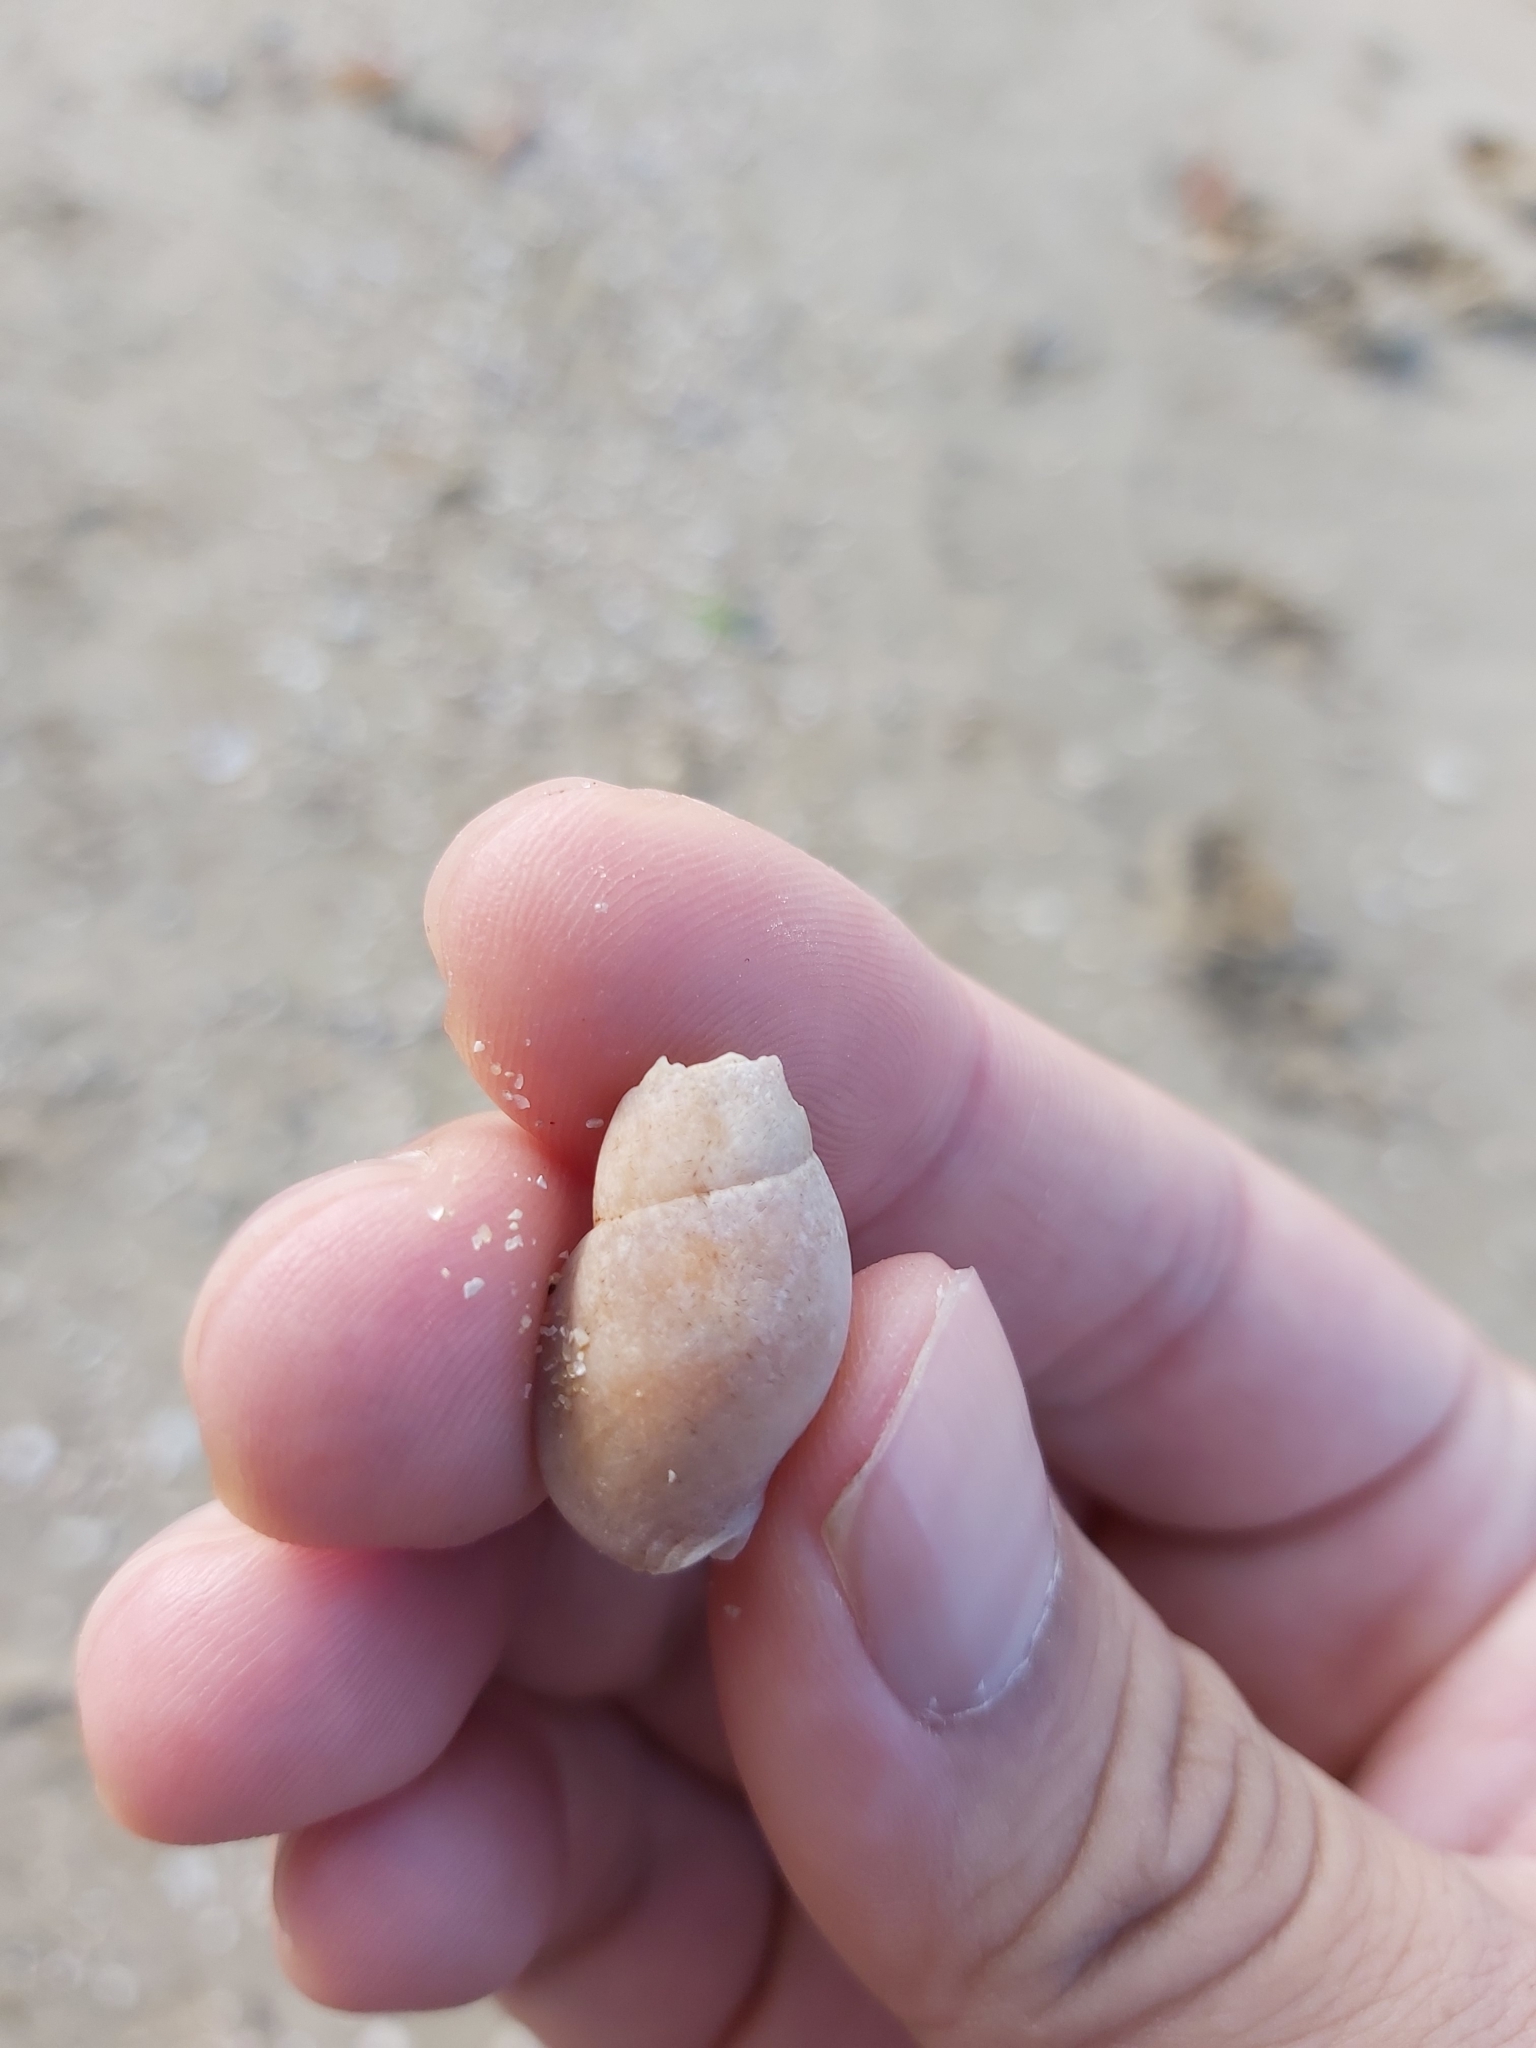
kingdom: Animalia
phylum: Mollusca
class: Gastropoda
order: Neogastropoda
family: Nassariidae
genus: Nassarius
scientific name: Nassarius dorsatus
